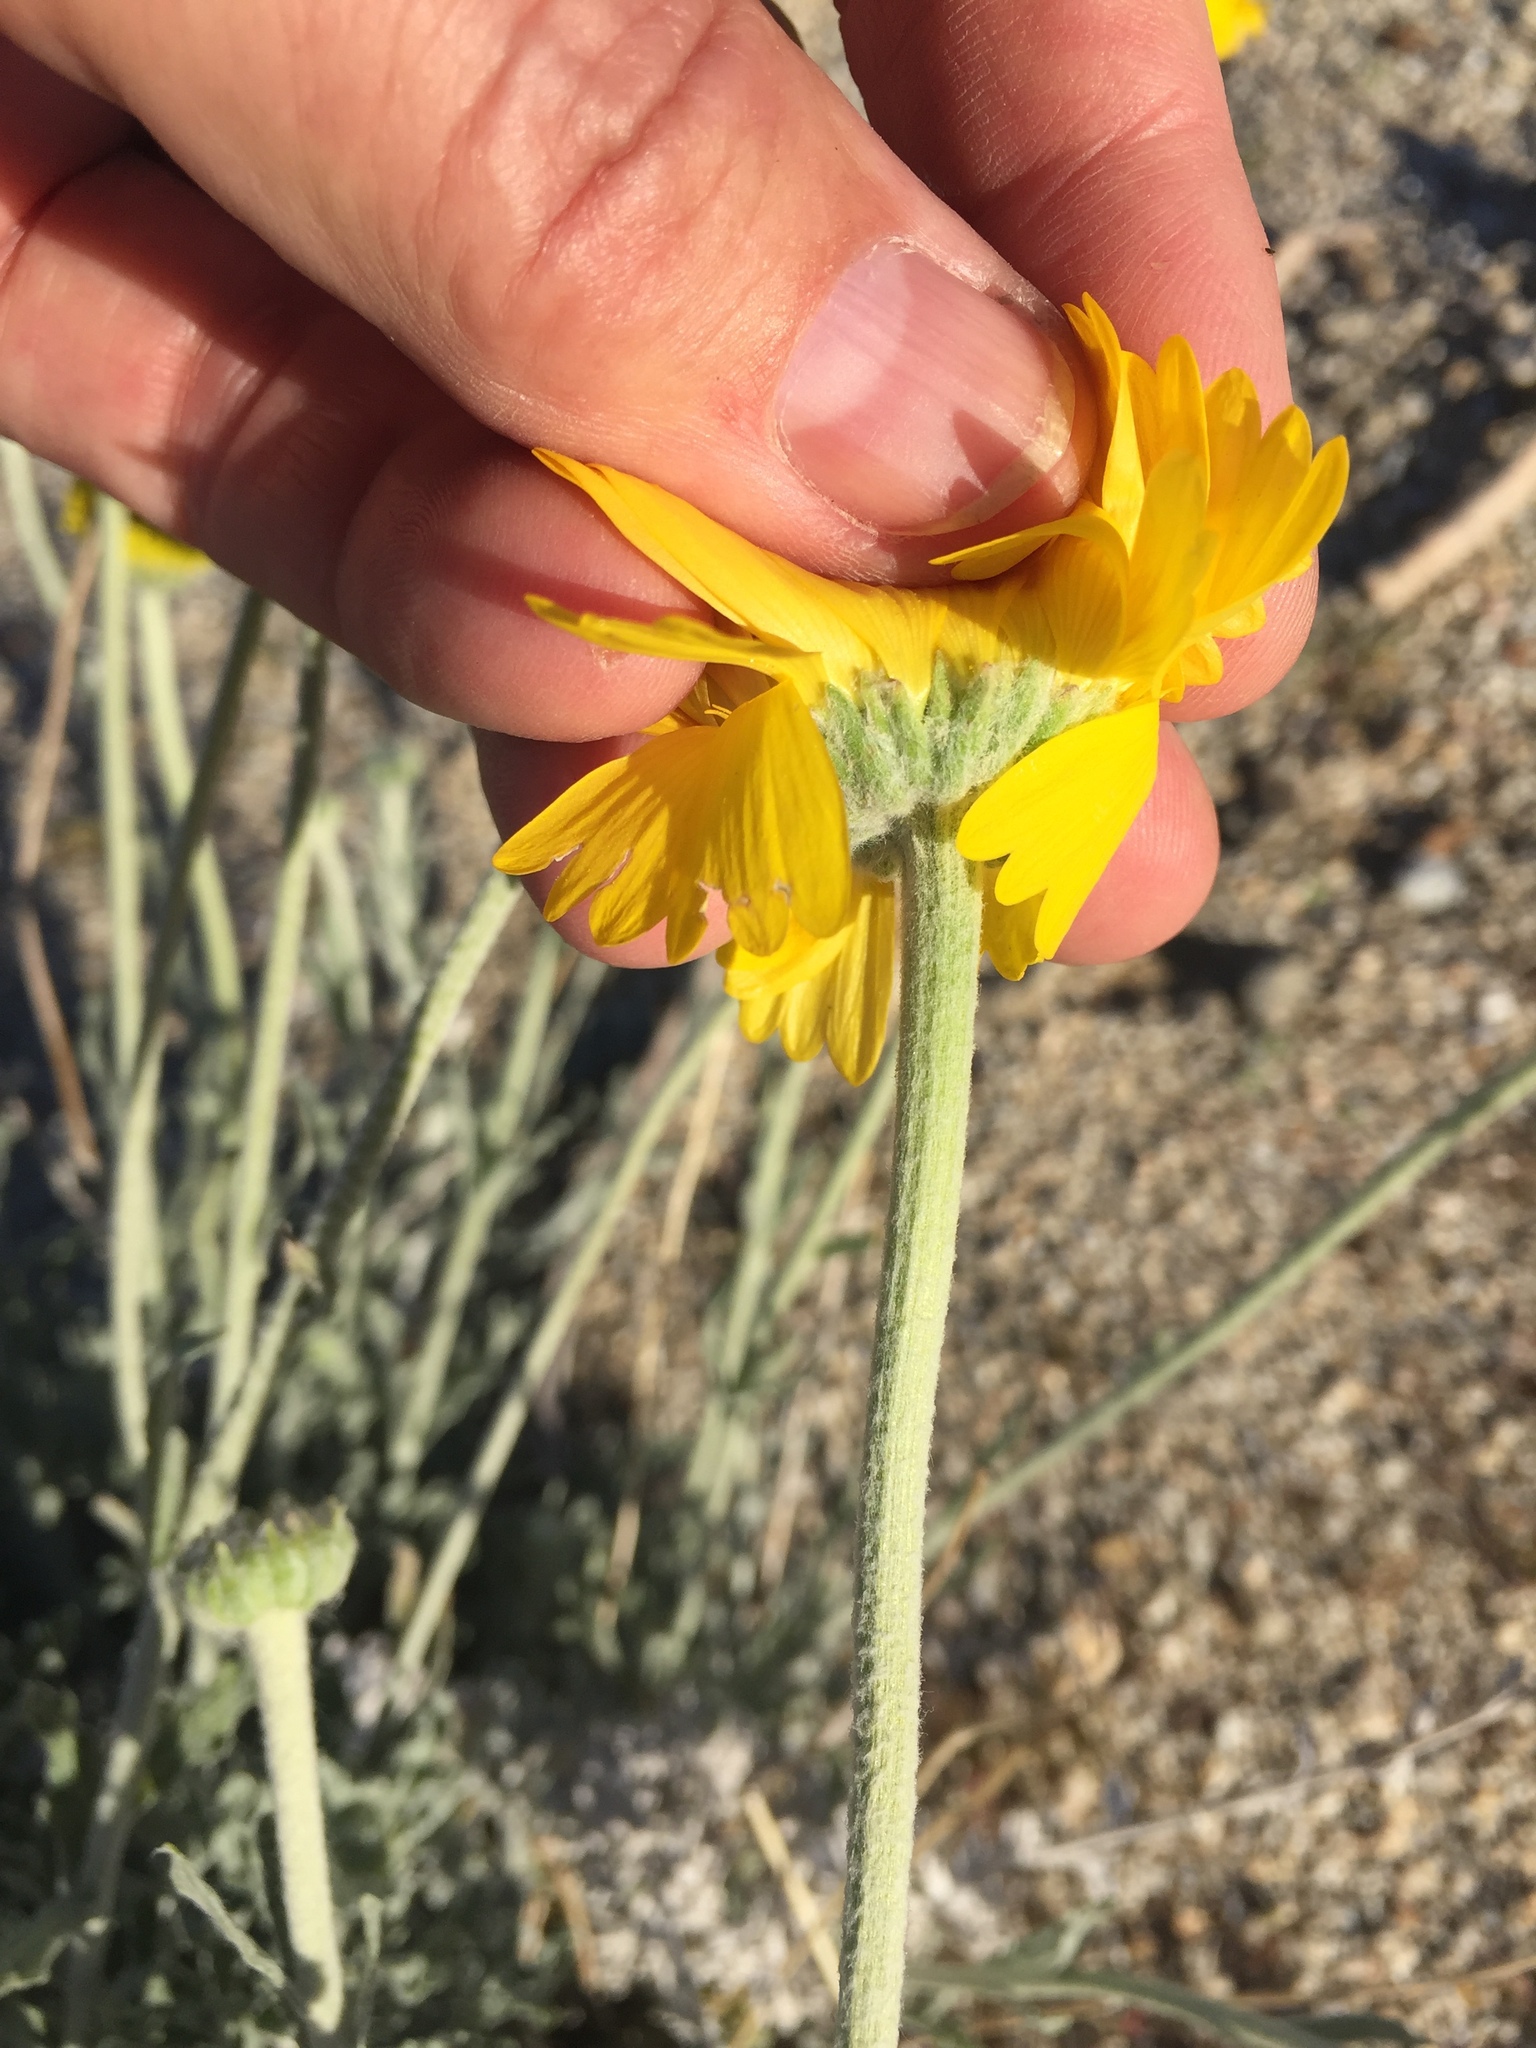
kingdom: Plantae
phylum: Tracheophyta
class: Magnoliopsida
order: Asterales
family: Asteraceae
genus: Baileya
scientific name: Baileya multiradiata
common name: Desert-marigold
